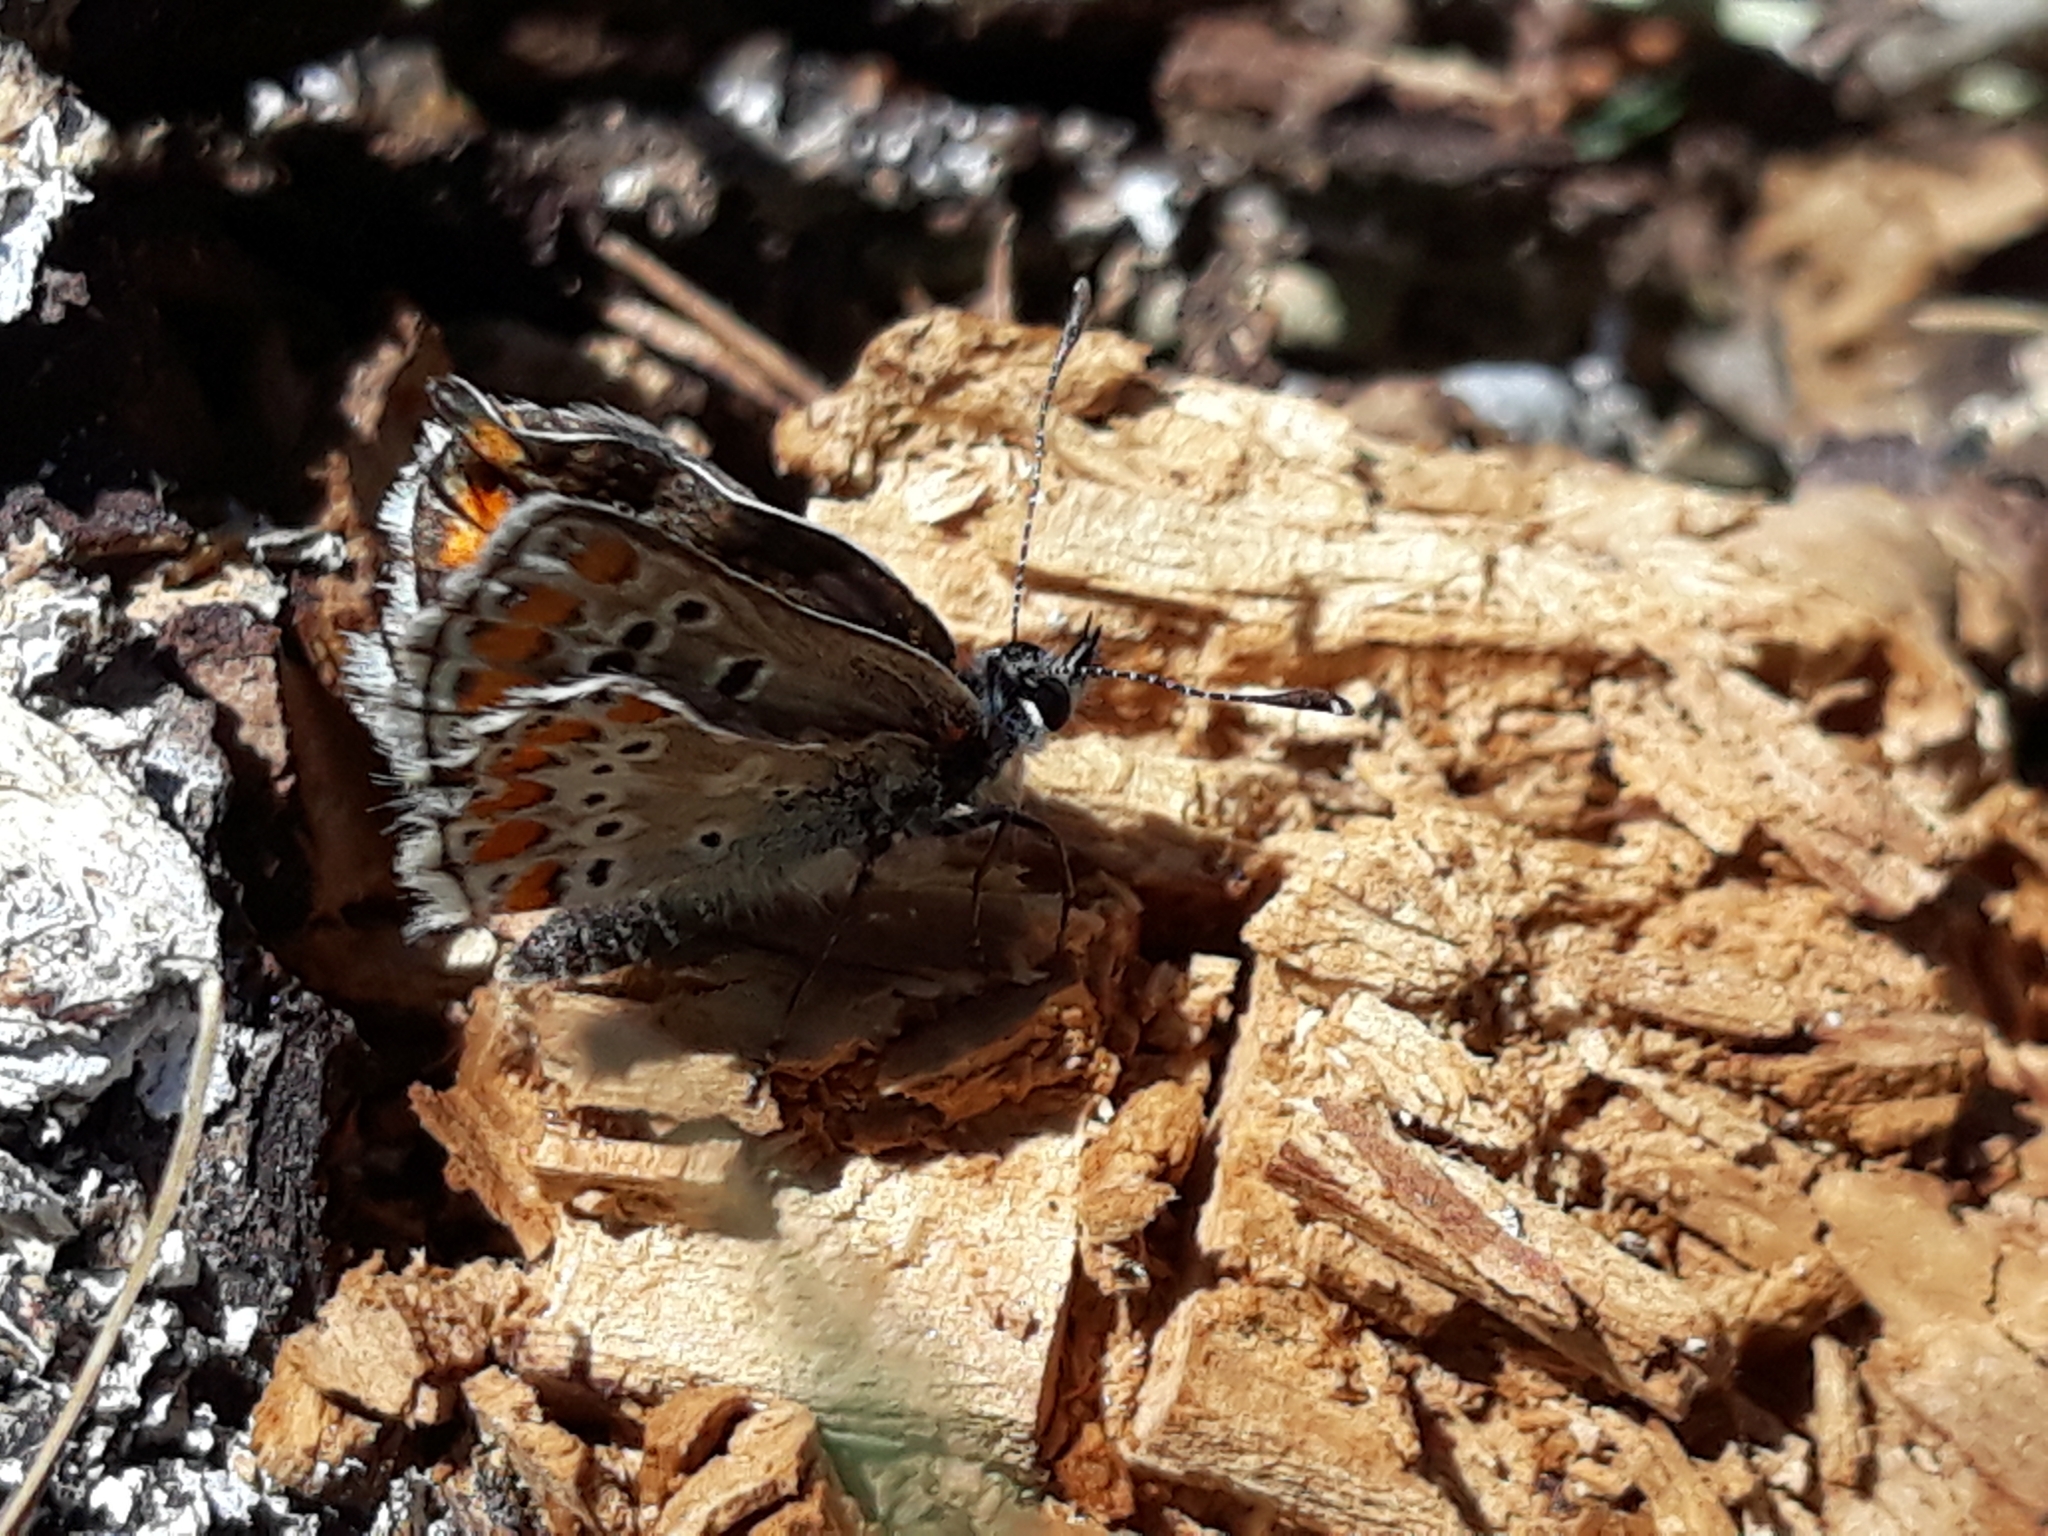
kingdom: Animalia
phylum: Arthropoda
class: Insecta
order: Lepidoptera
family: Lycaenidae
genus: Aricia
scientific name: Aricia cramera
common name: Eschscholtz´s brown  argus
